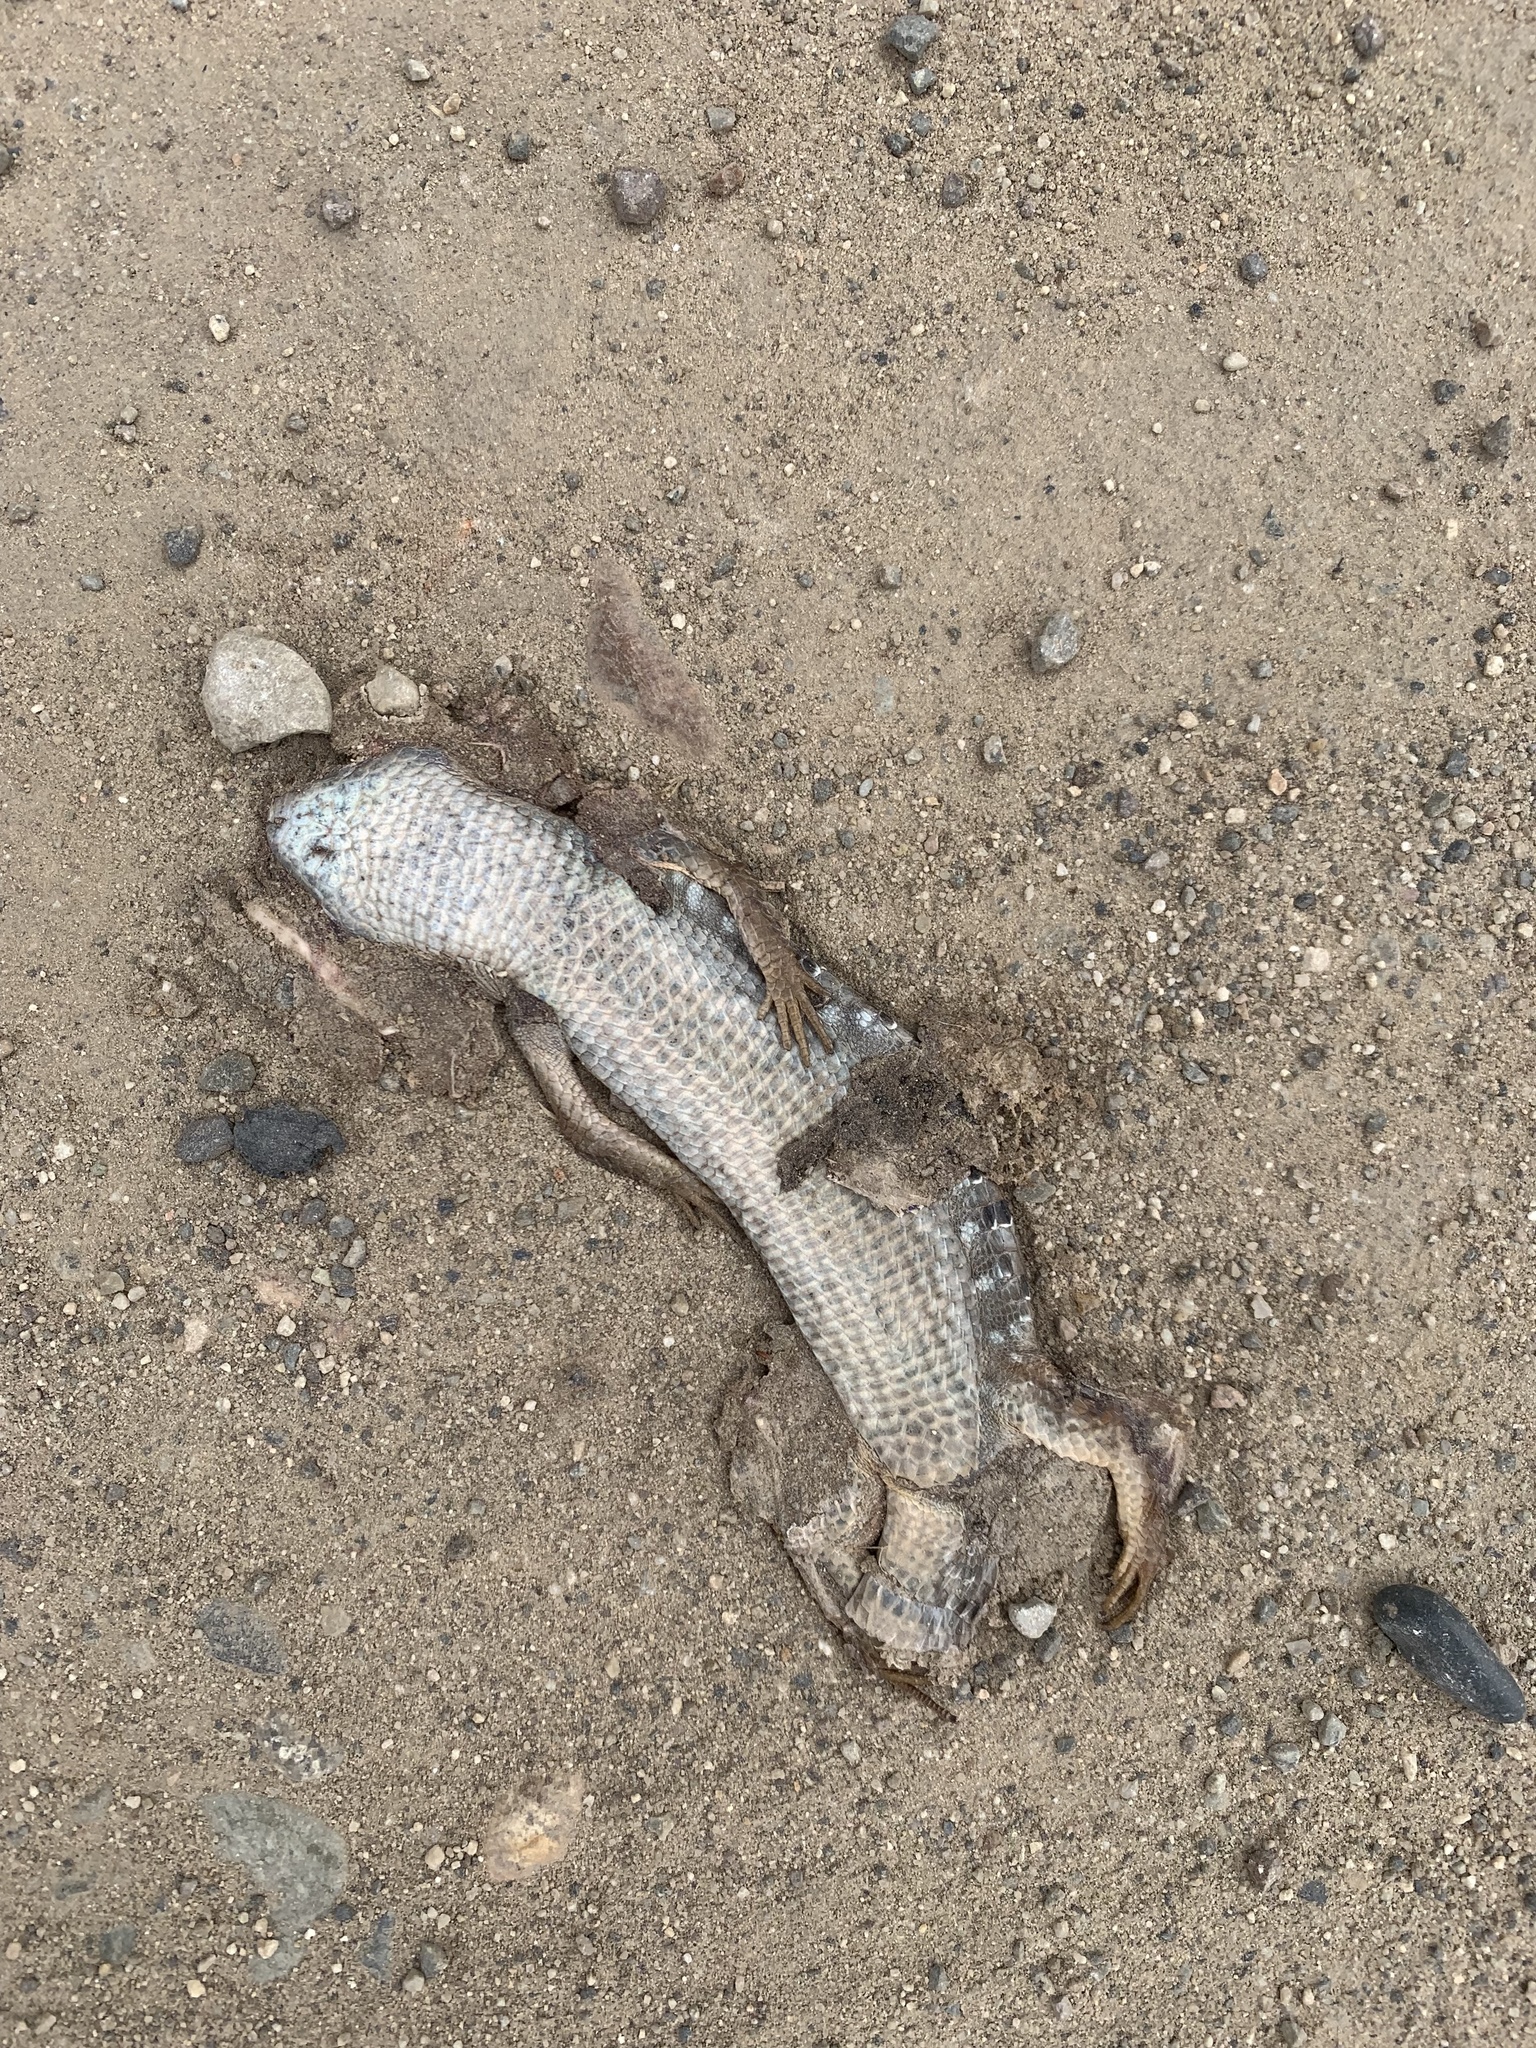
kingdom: Animalia
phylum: Chordata
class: Squamata
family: Anguidae
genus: Elgaria
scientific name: Elgaria multicarinata
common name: Southern alligator lizard
